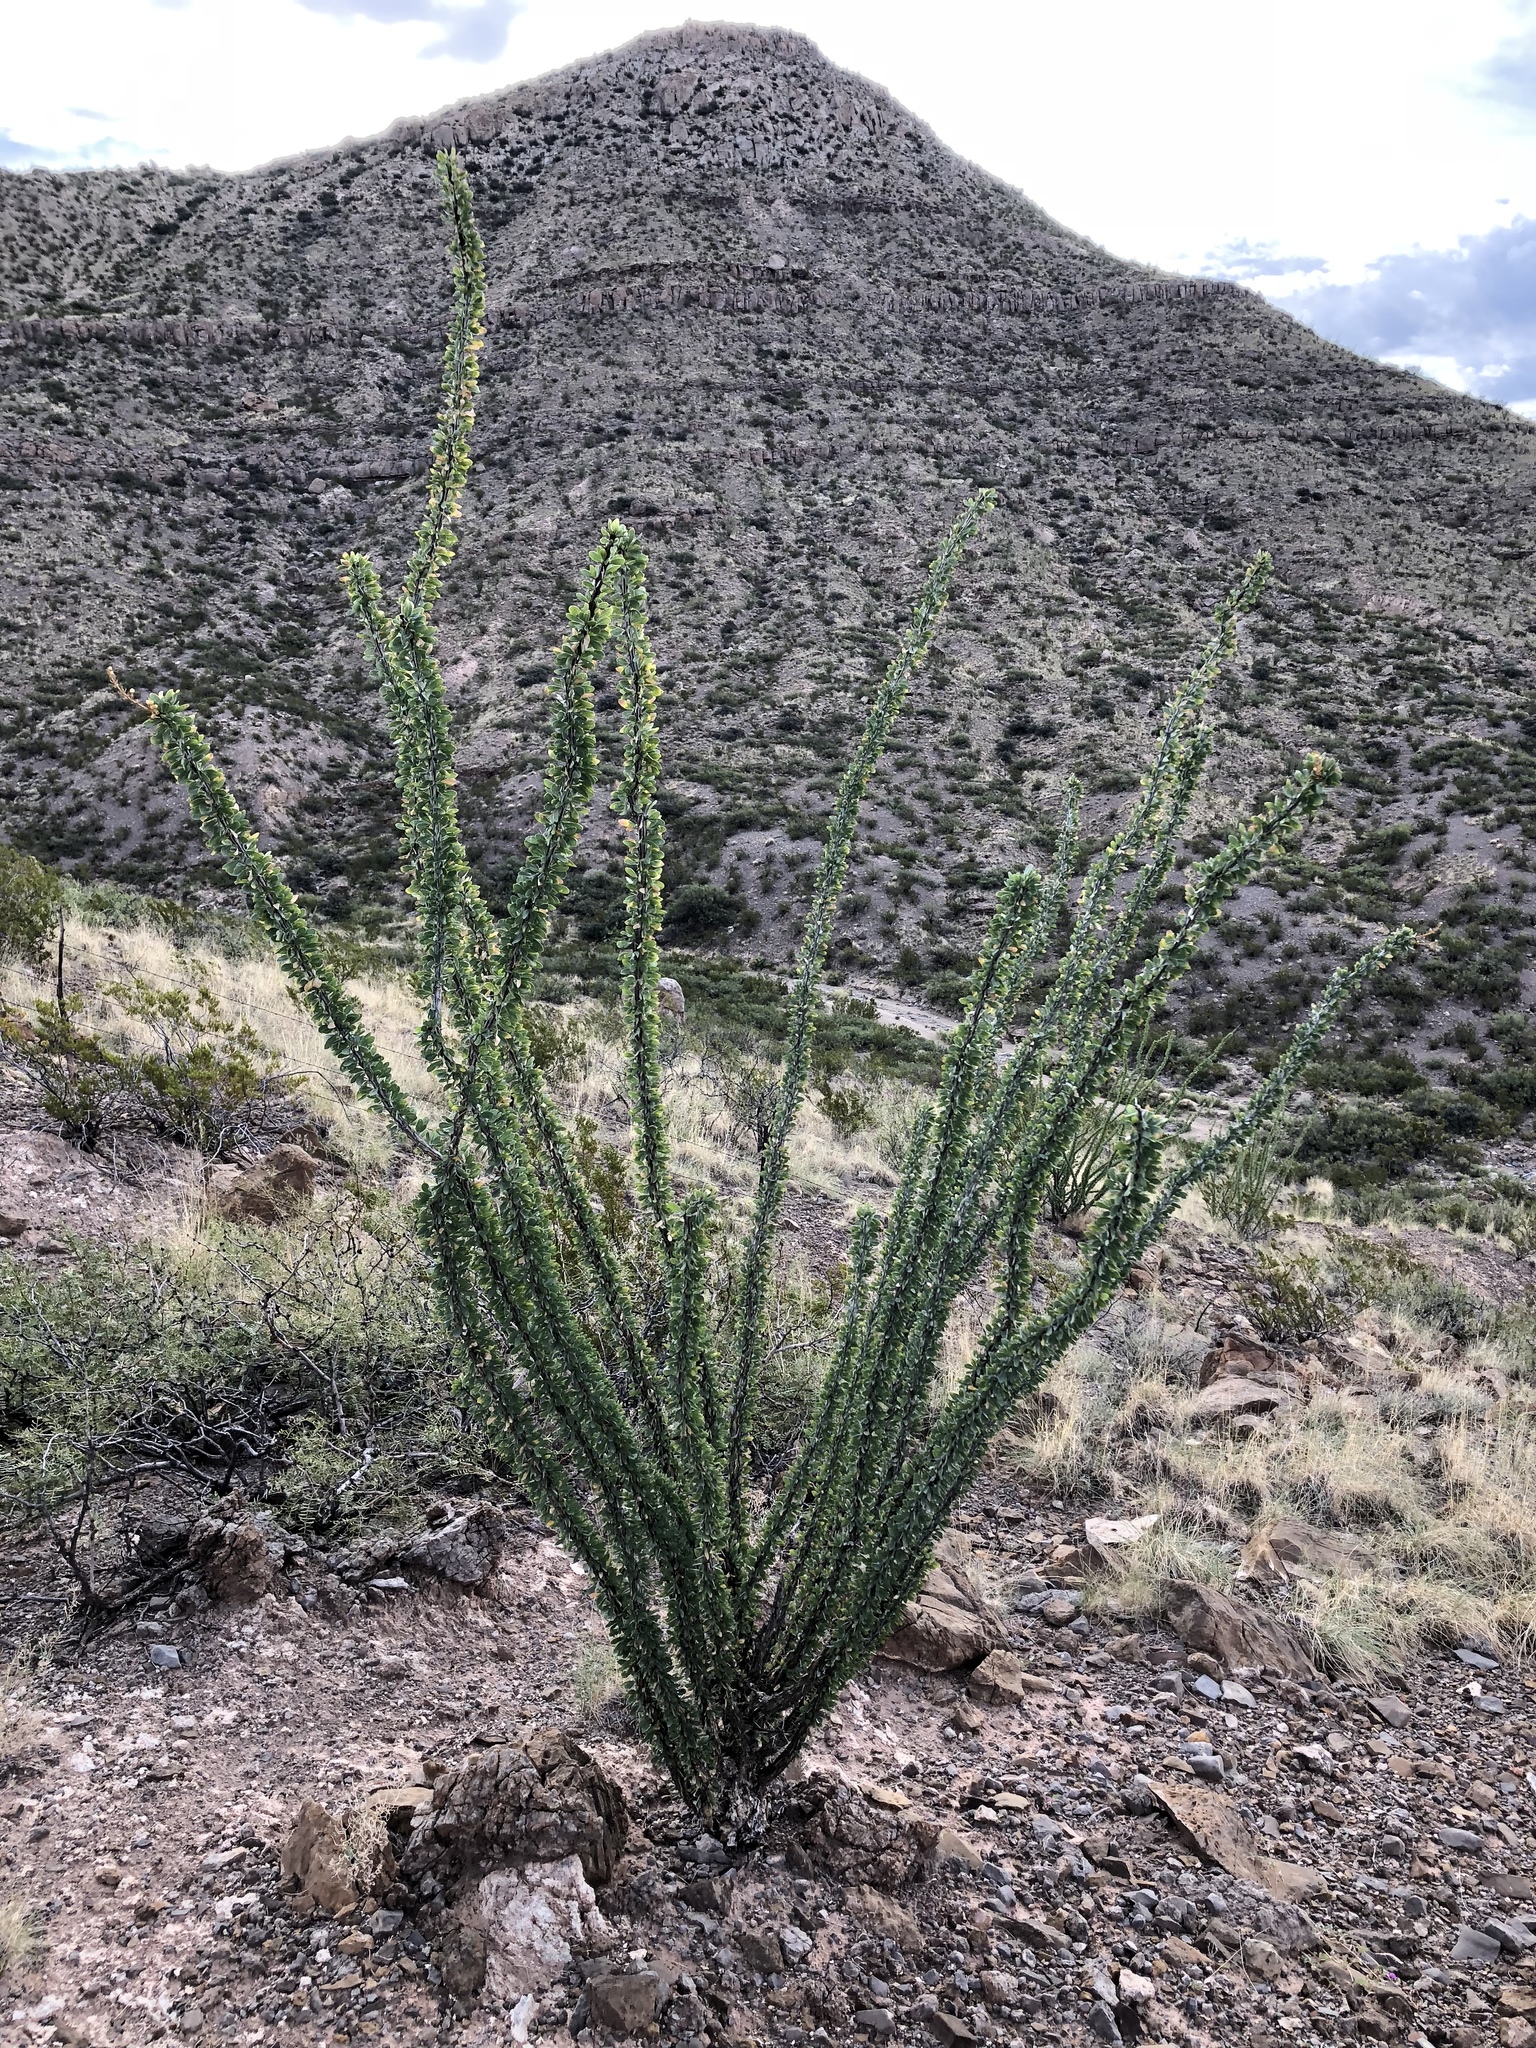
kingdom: Plantae
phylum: Tracheophyta
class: Magnoliopsida
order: Ericales
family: Fouquieriaceae
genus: Fouquieria
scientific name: Fouquieria splendens
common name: Vine-cactus
